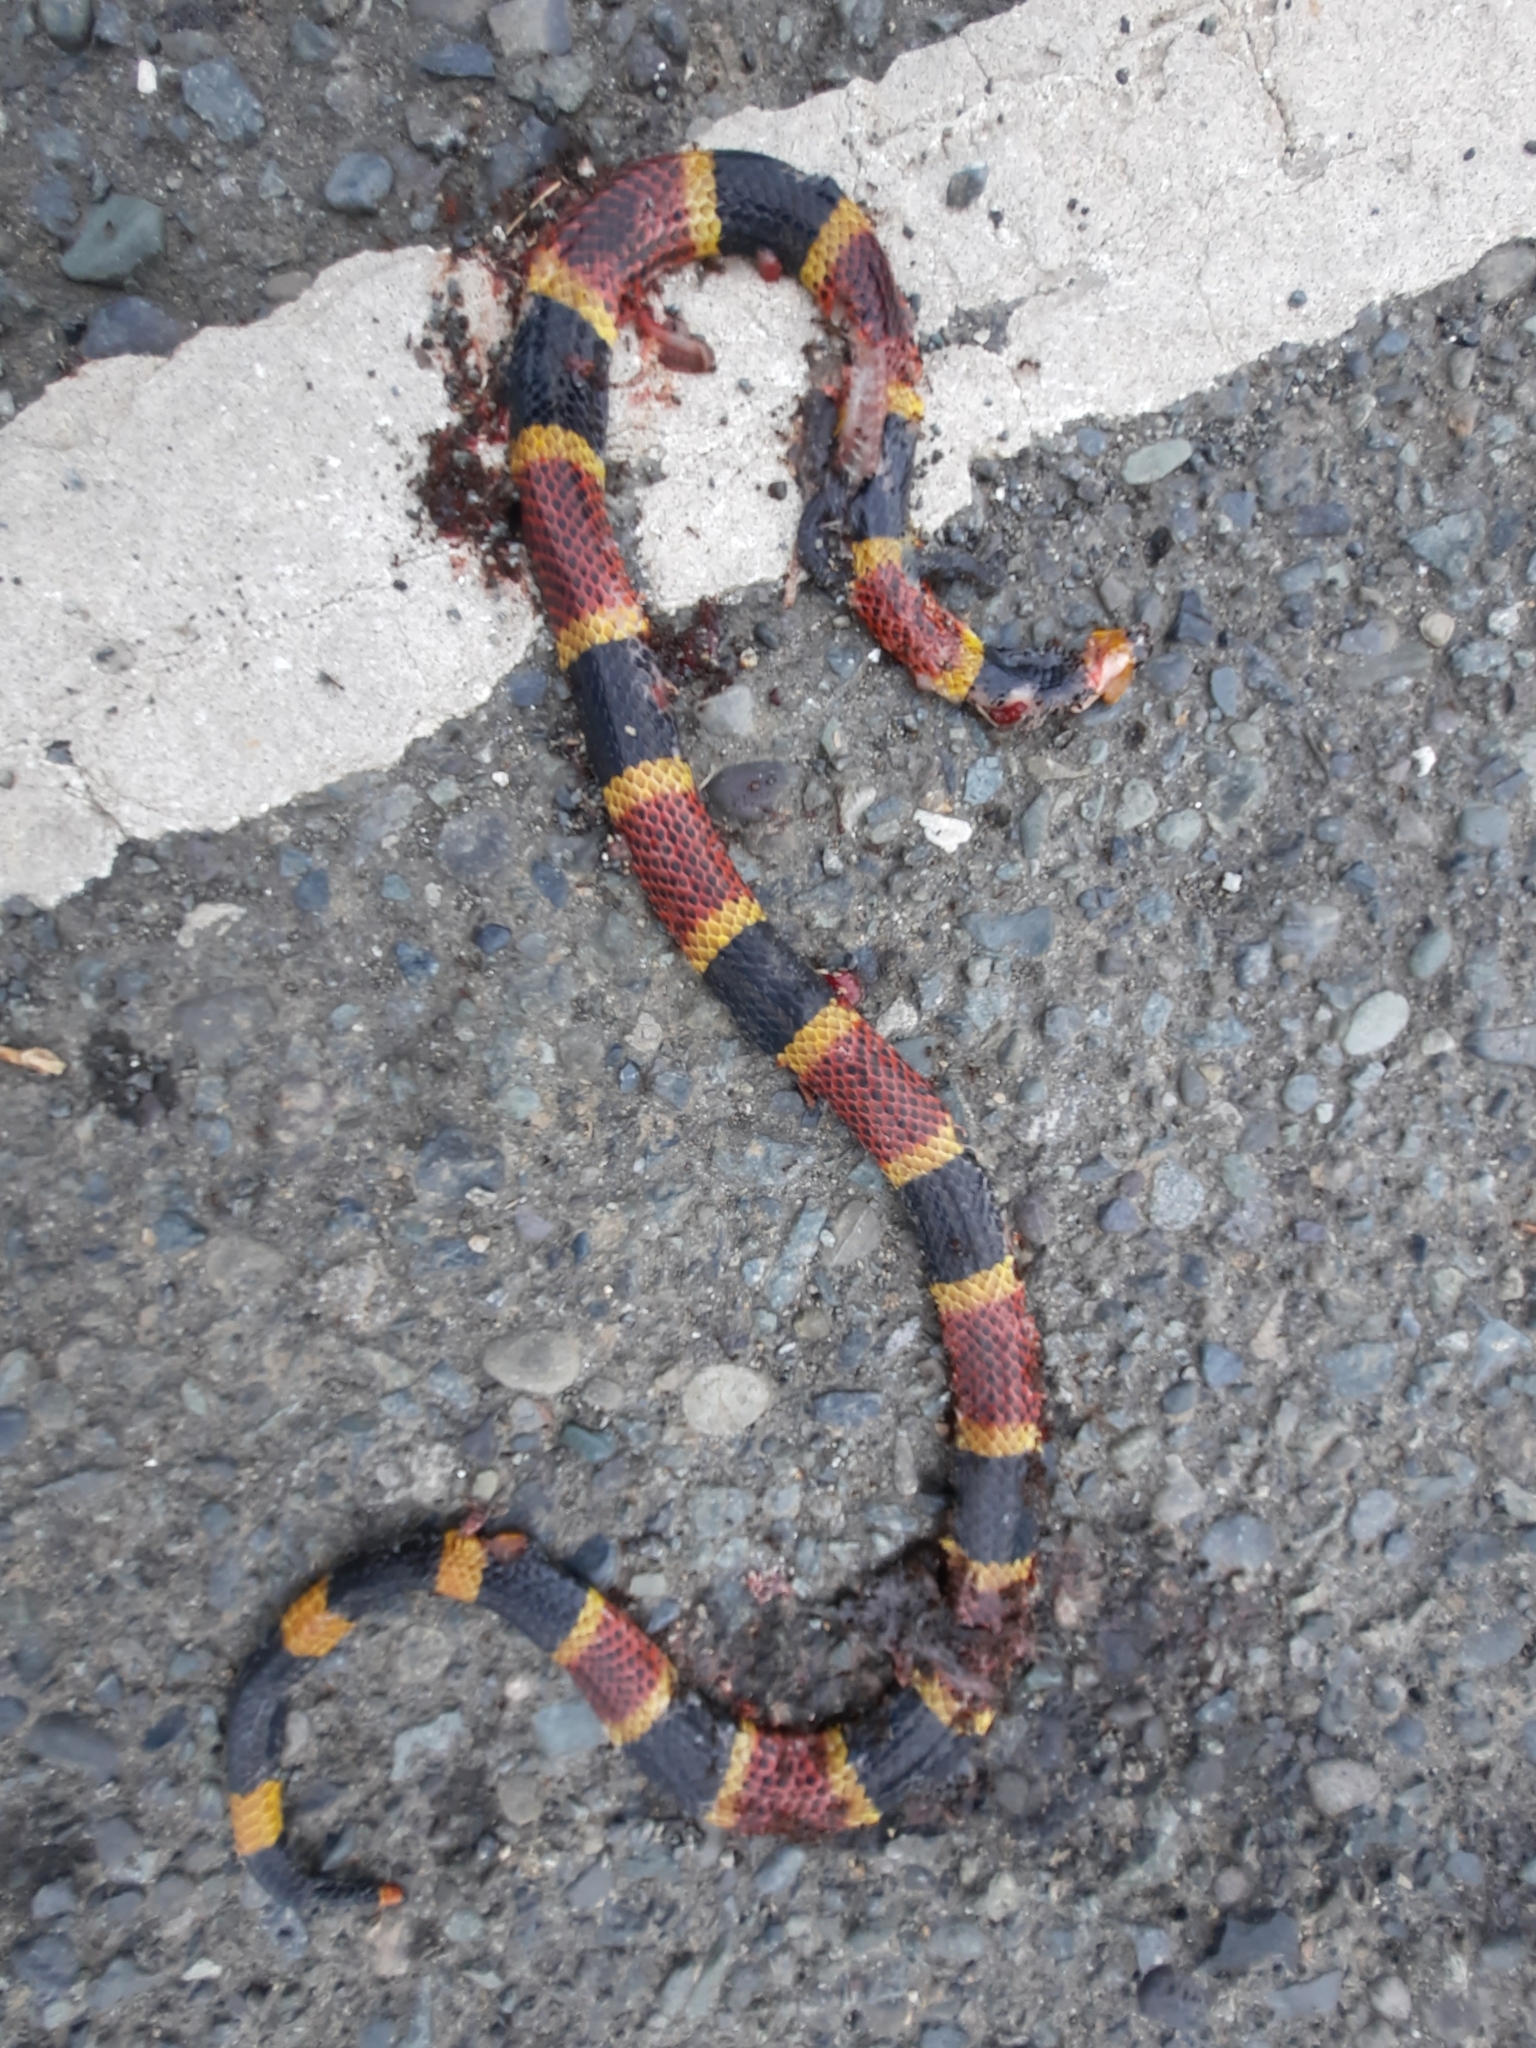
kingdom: Animalia
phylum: Chordata
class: Squamata
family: Elapidae
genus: Micrurus
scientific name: Micrurus mosquitensis
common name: Misquito coral snake
